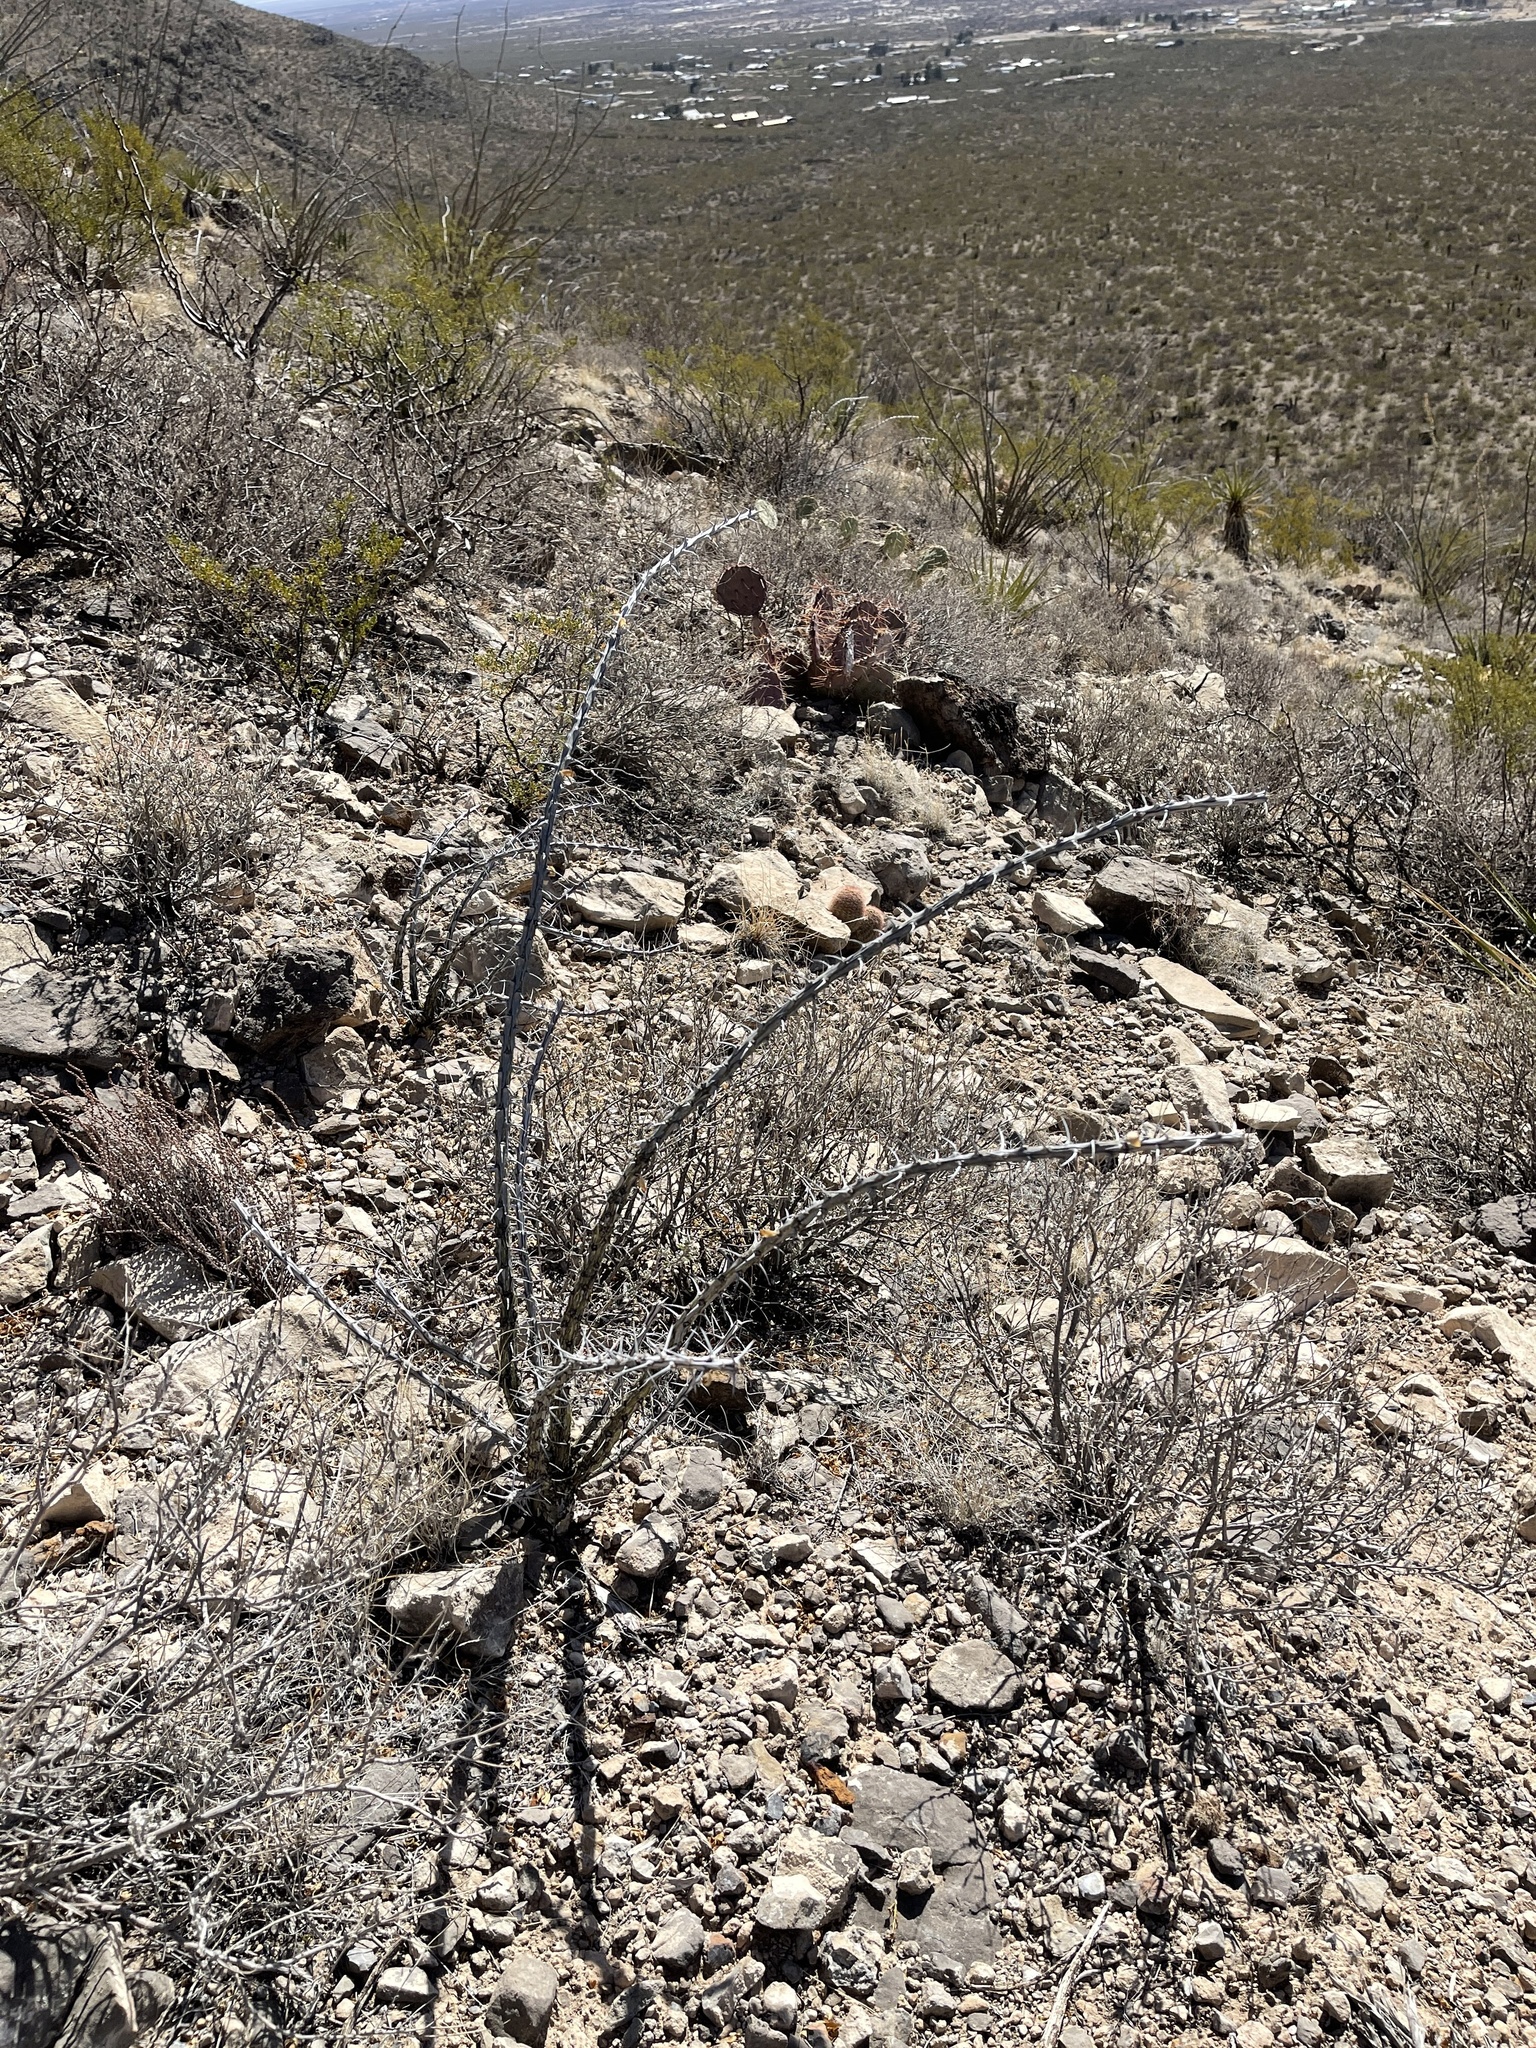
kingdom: Plantae
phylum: Tracheophyta
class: Magnoliopsida
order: Ericales
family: Fouquieriaceae
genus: Fouquieria
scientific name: Fouquieria splendens
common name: Vine-cactus
